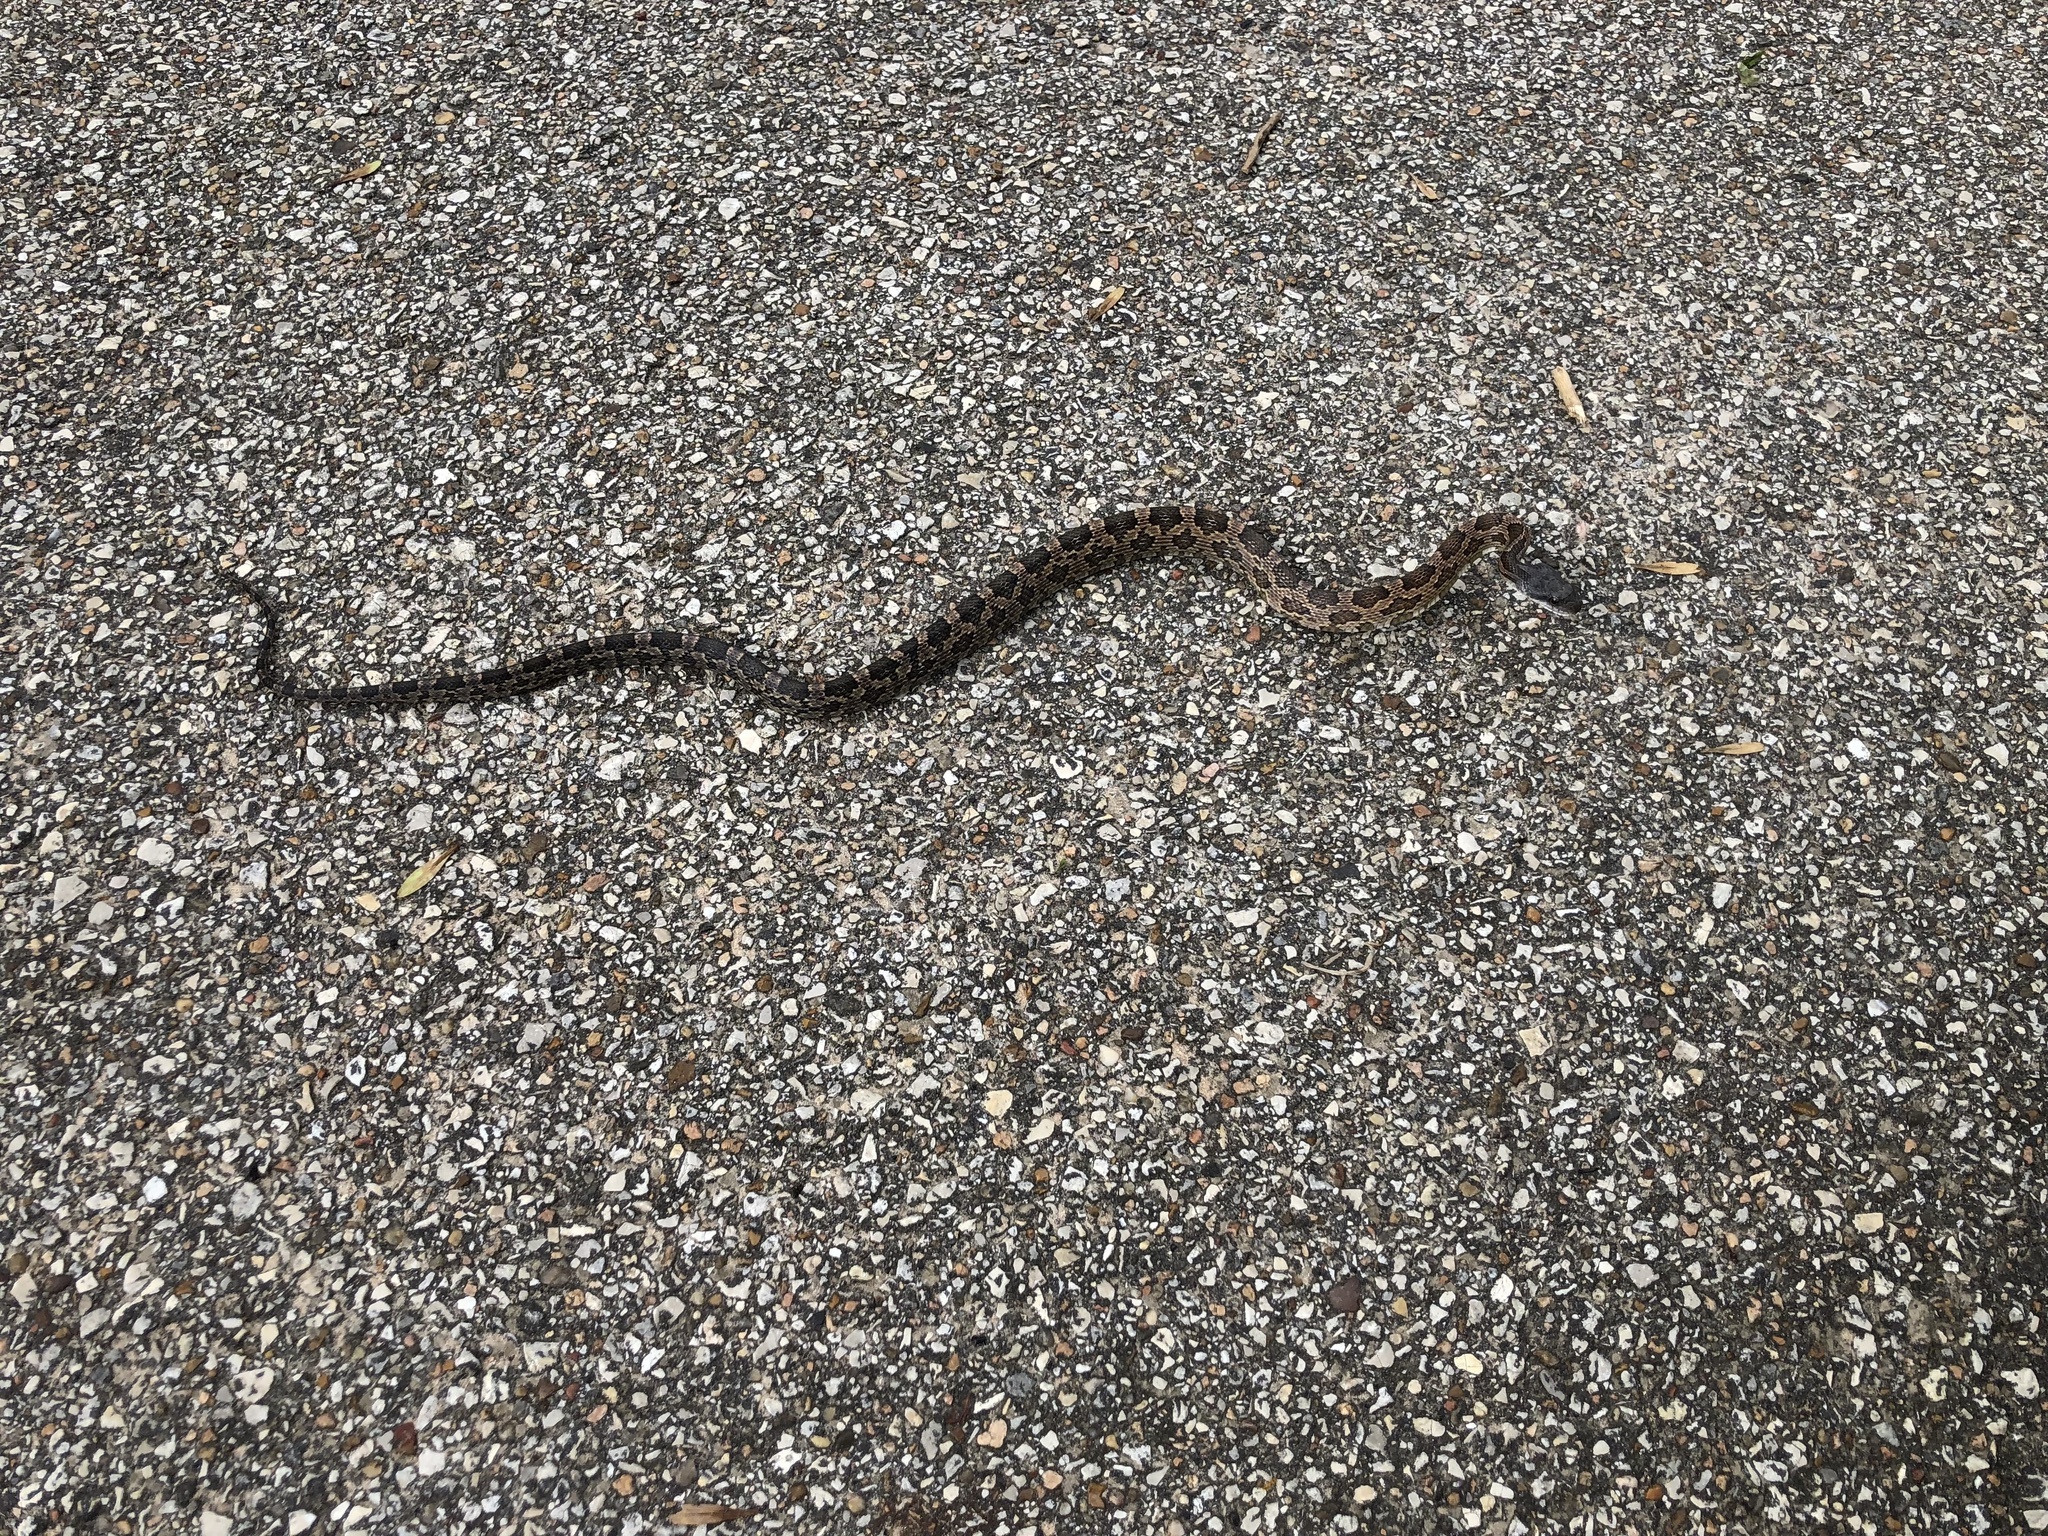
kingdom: Animalia
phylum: Chordata
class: Squamata
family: Colubridae
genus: Pantherophis
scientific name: Pantherophis obsoletus
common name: Black rat snake
